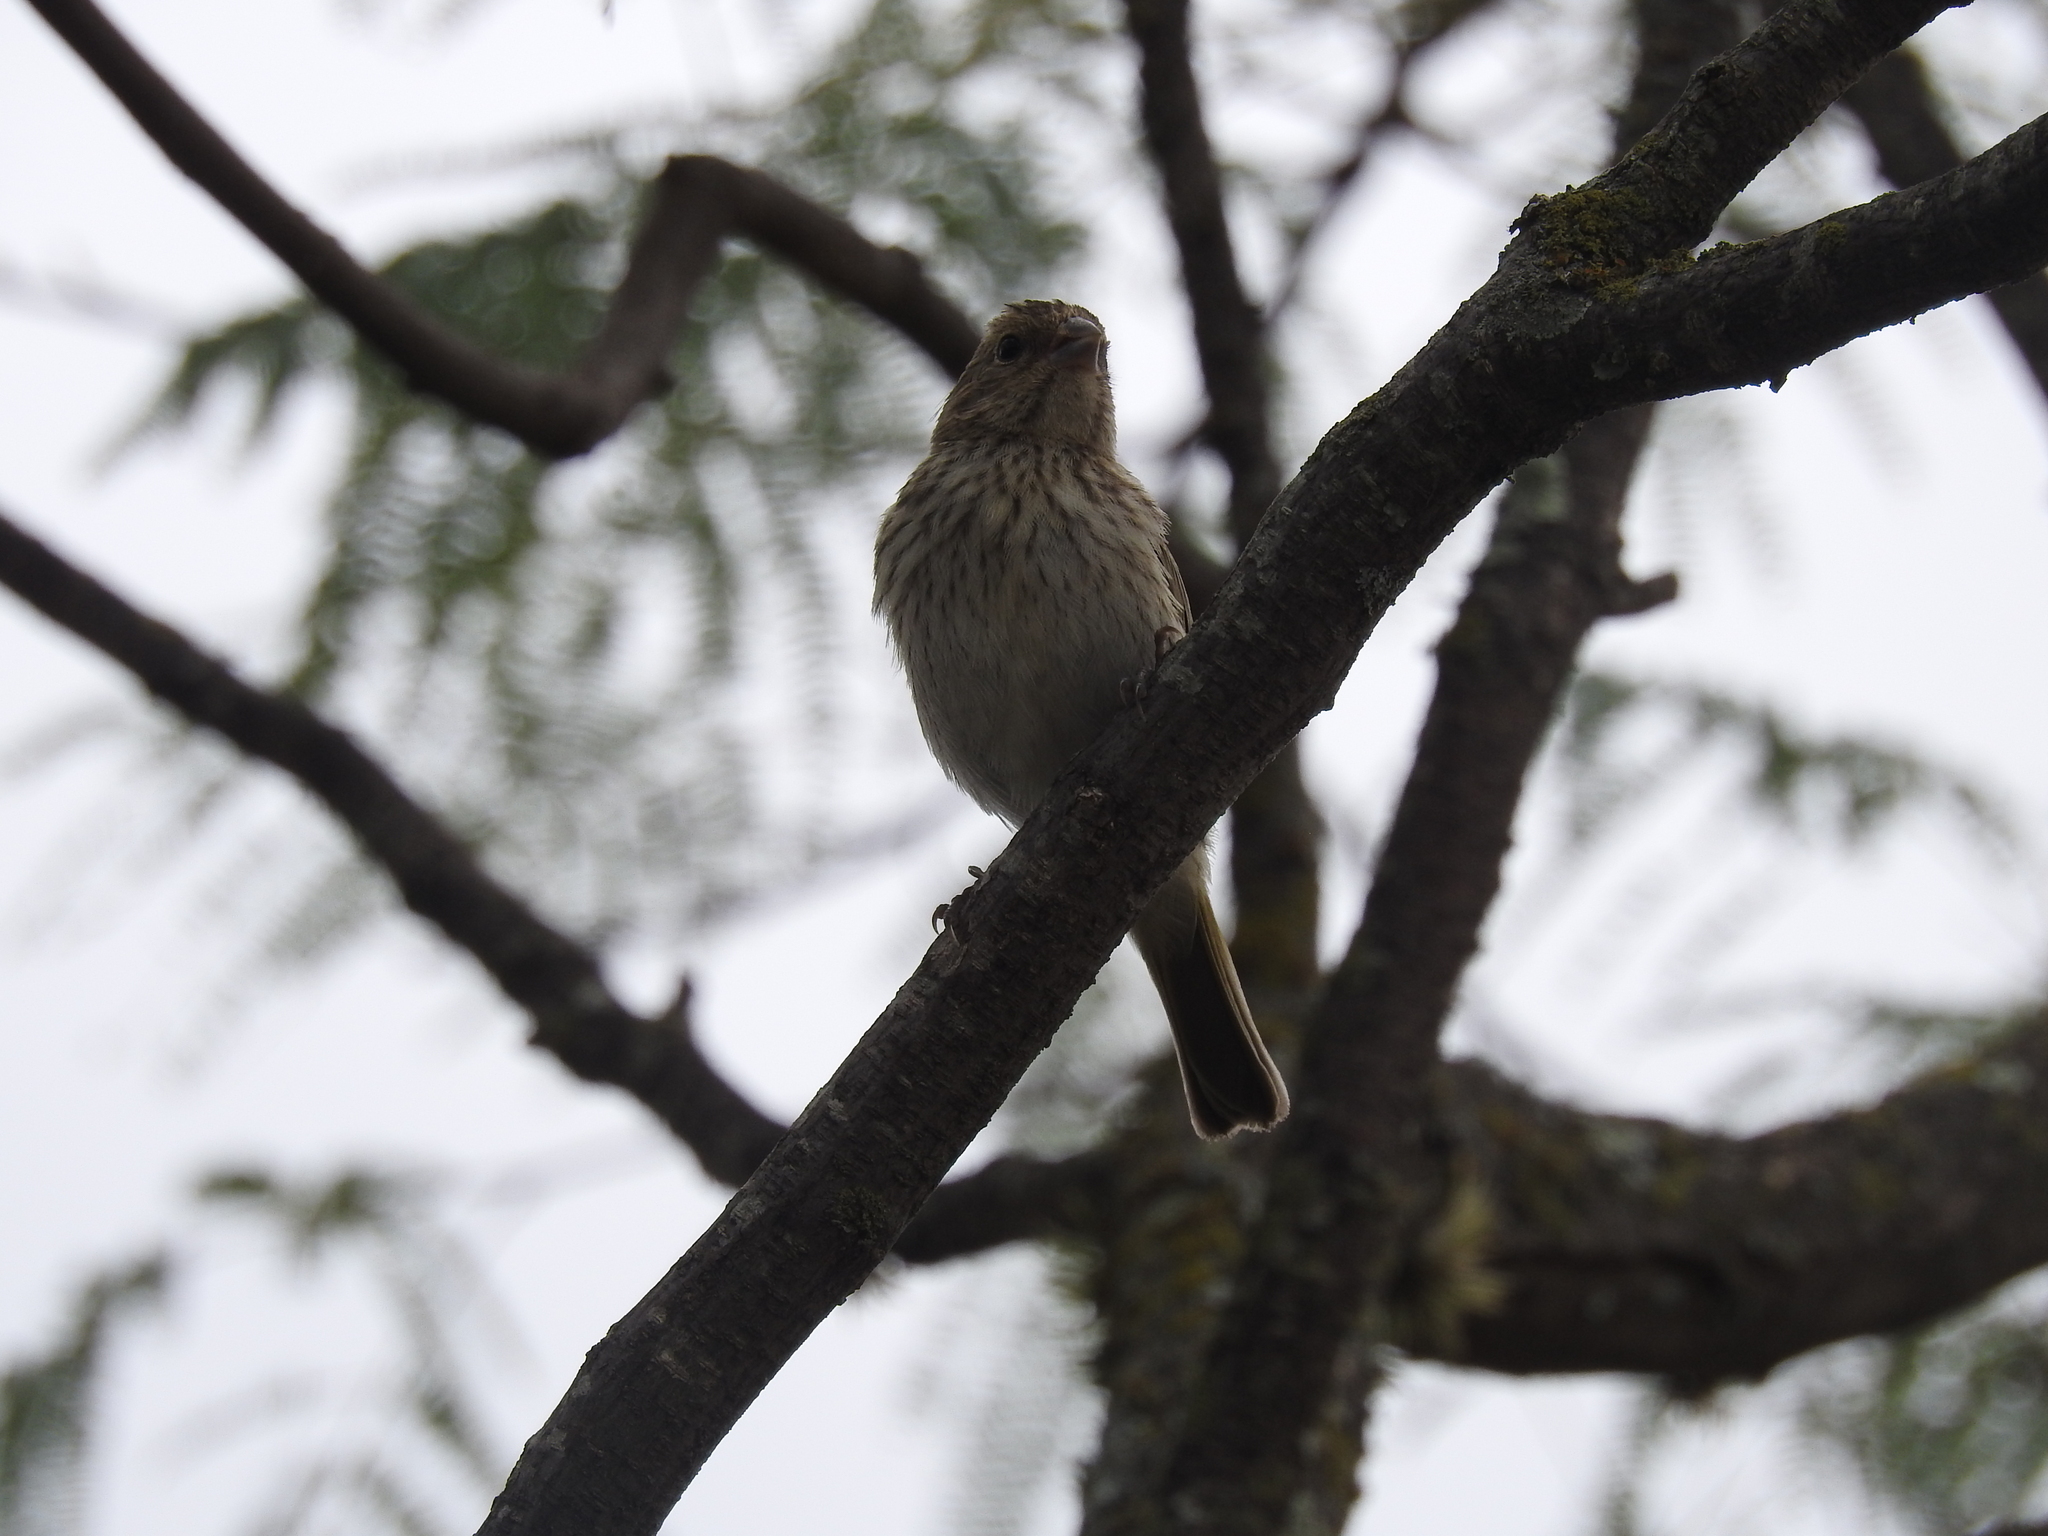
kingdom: Animalia
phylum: Chordata
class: Aves
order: Passeriformes
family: Thraupidae
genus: Sicalis
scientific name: Sicalis flaveola
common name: Saffron finch
